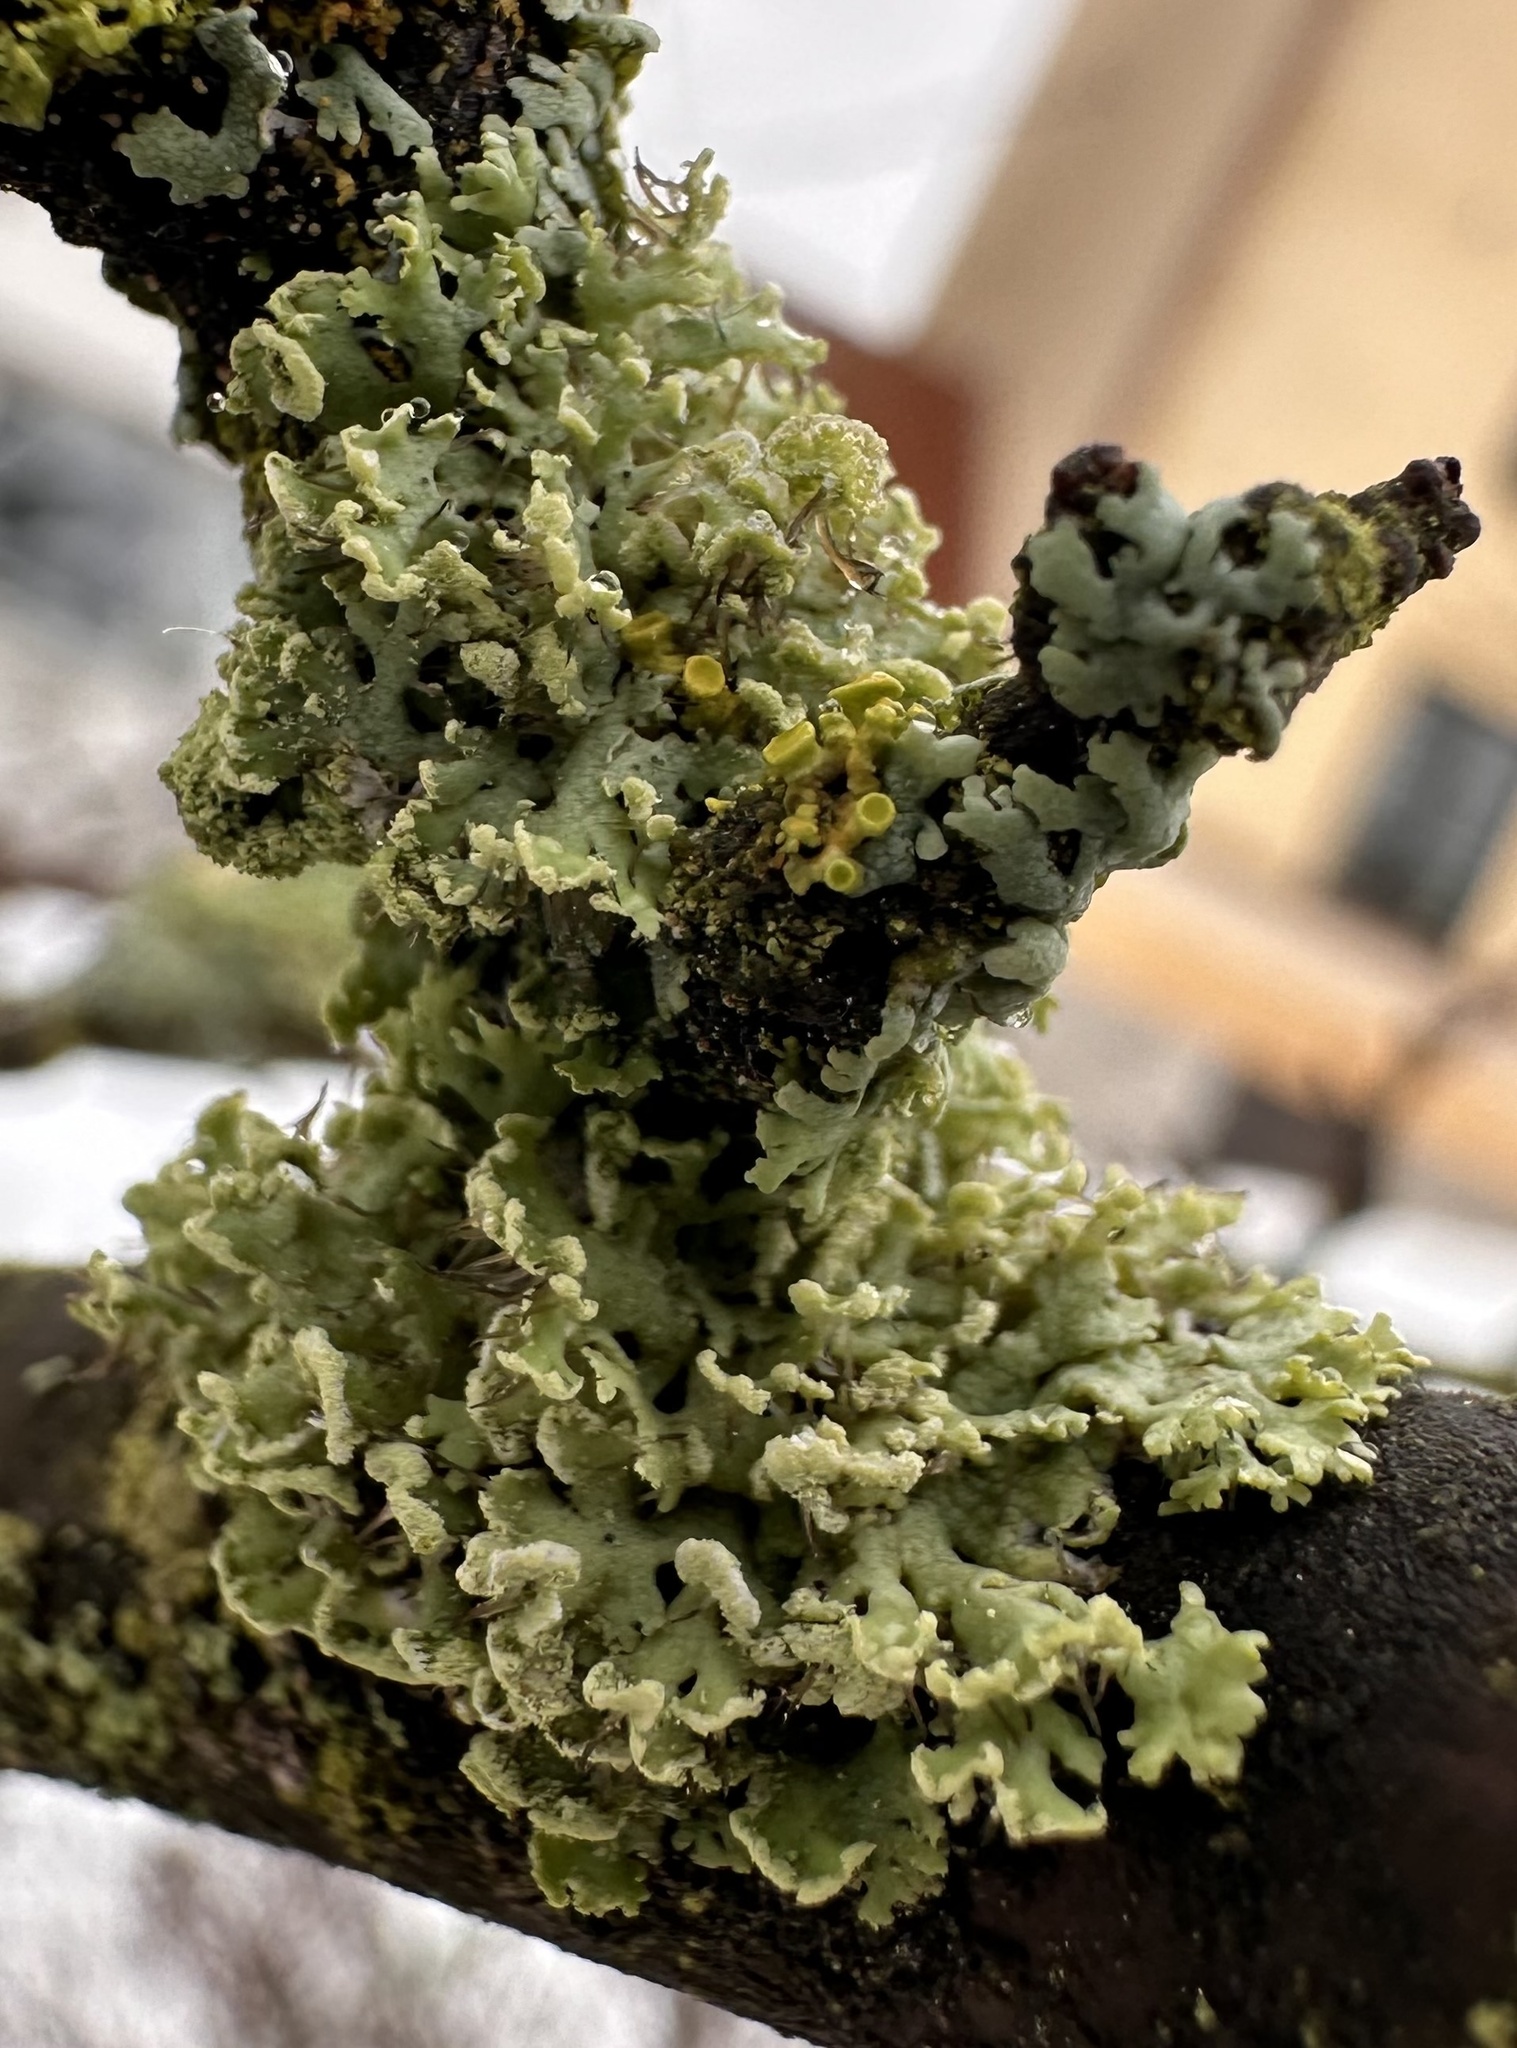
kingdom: Fungi
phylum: Ascomycota
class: Lecanoromycetes
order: Caliciales
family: Physciaceae
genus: Physcia
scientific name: Physcia tenella
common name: Fringed rosette lichen
